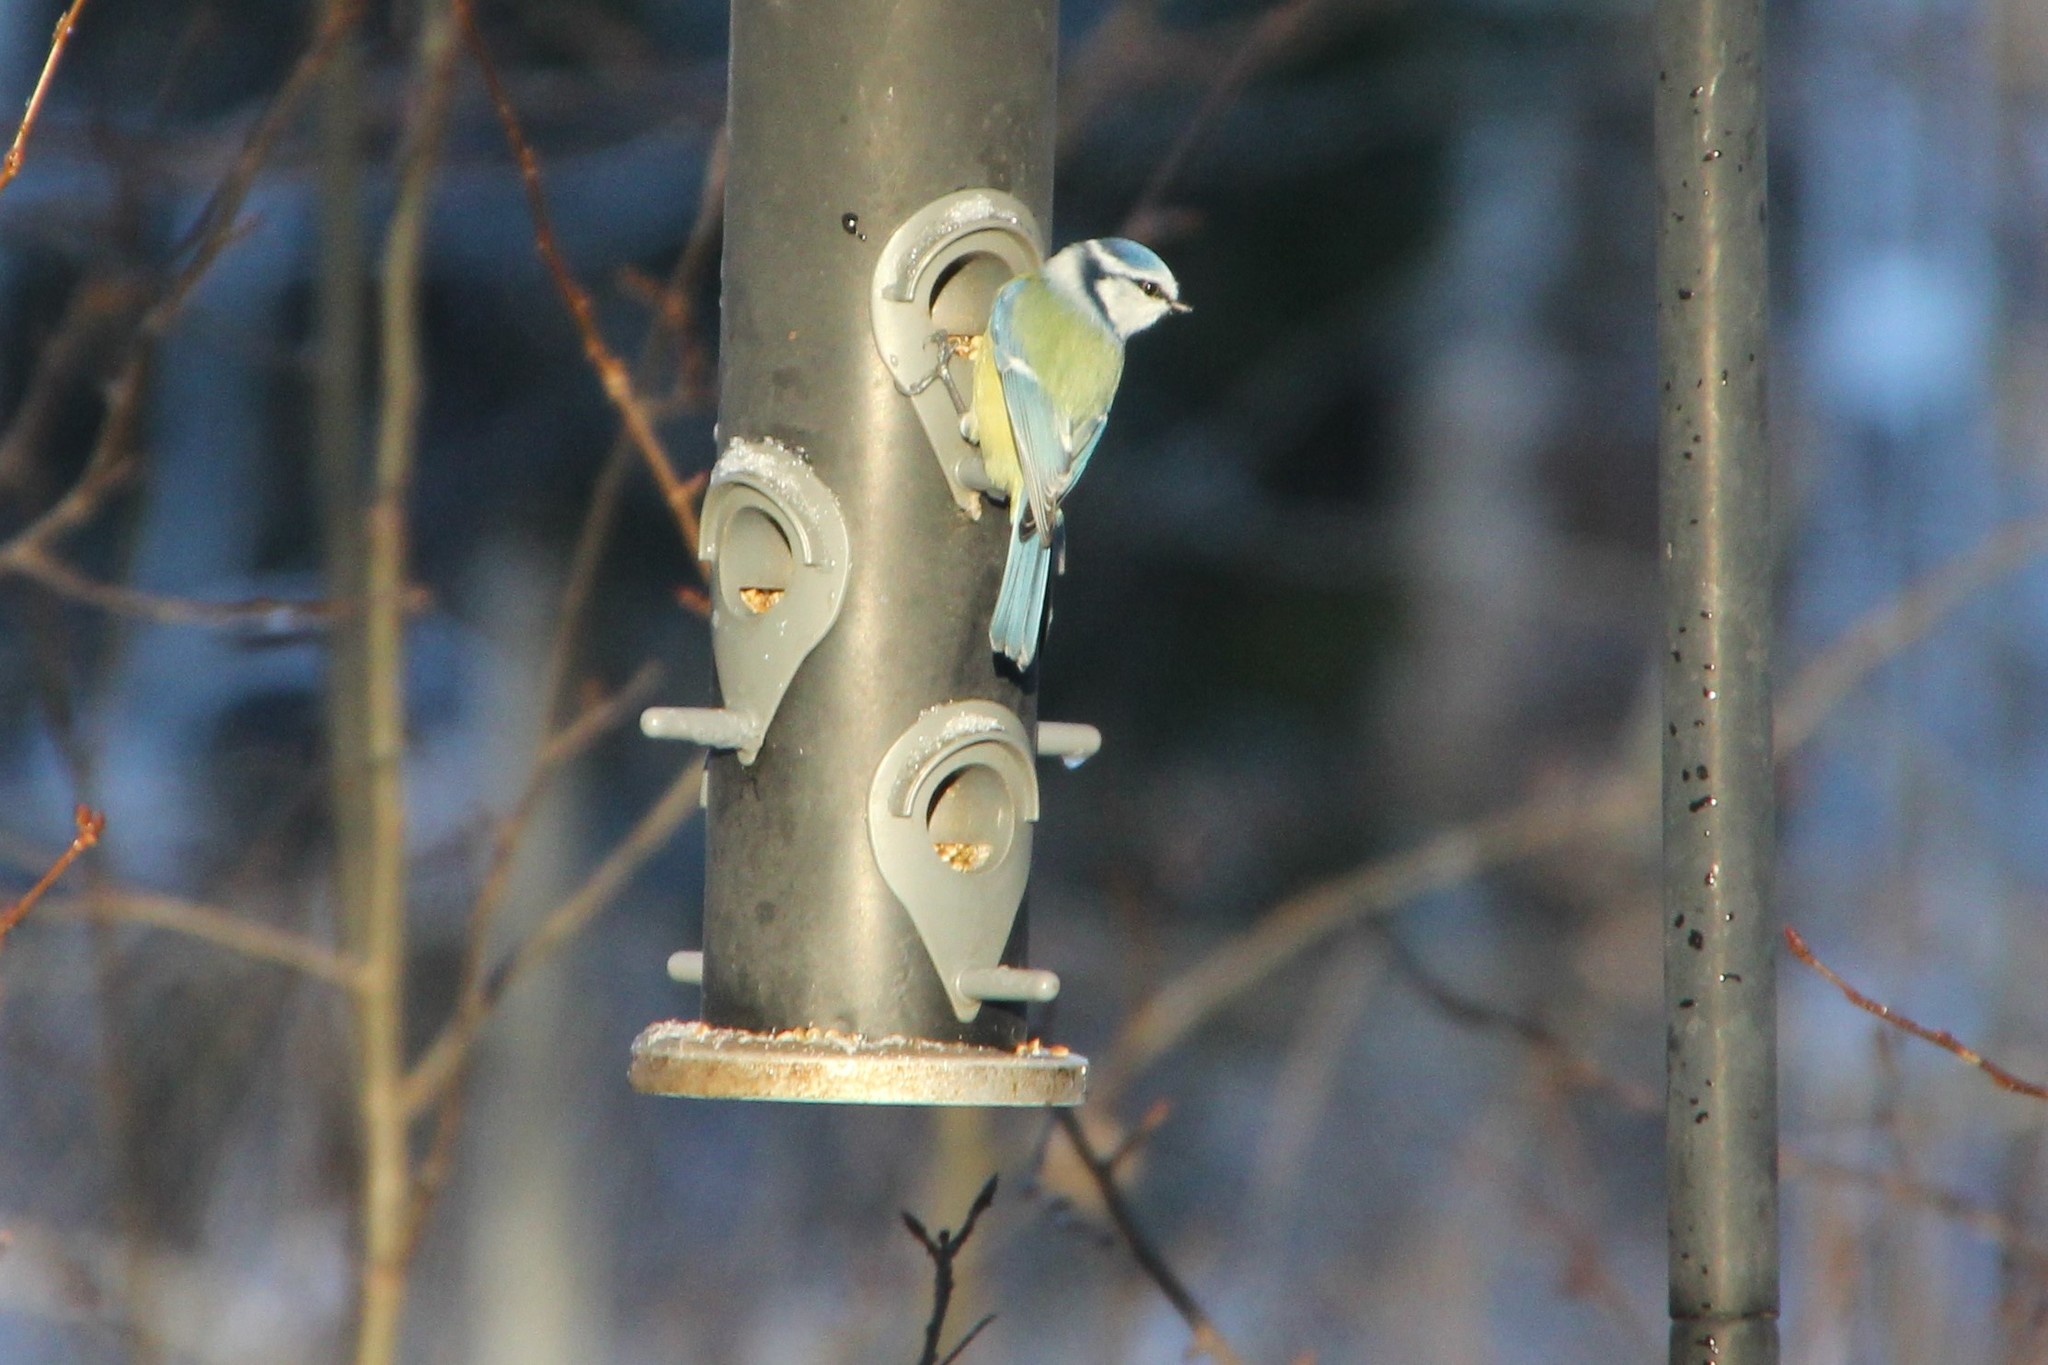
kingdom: Animalia
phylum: Chordata
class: Aves
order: Passeriformes
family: Paridae
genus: Cyanistes
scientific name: Cyanistes caeruleus
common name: Eurasian blue tit
